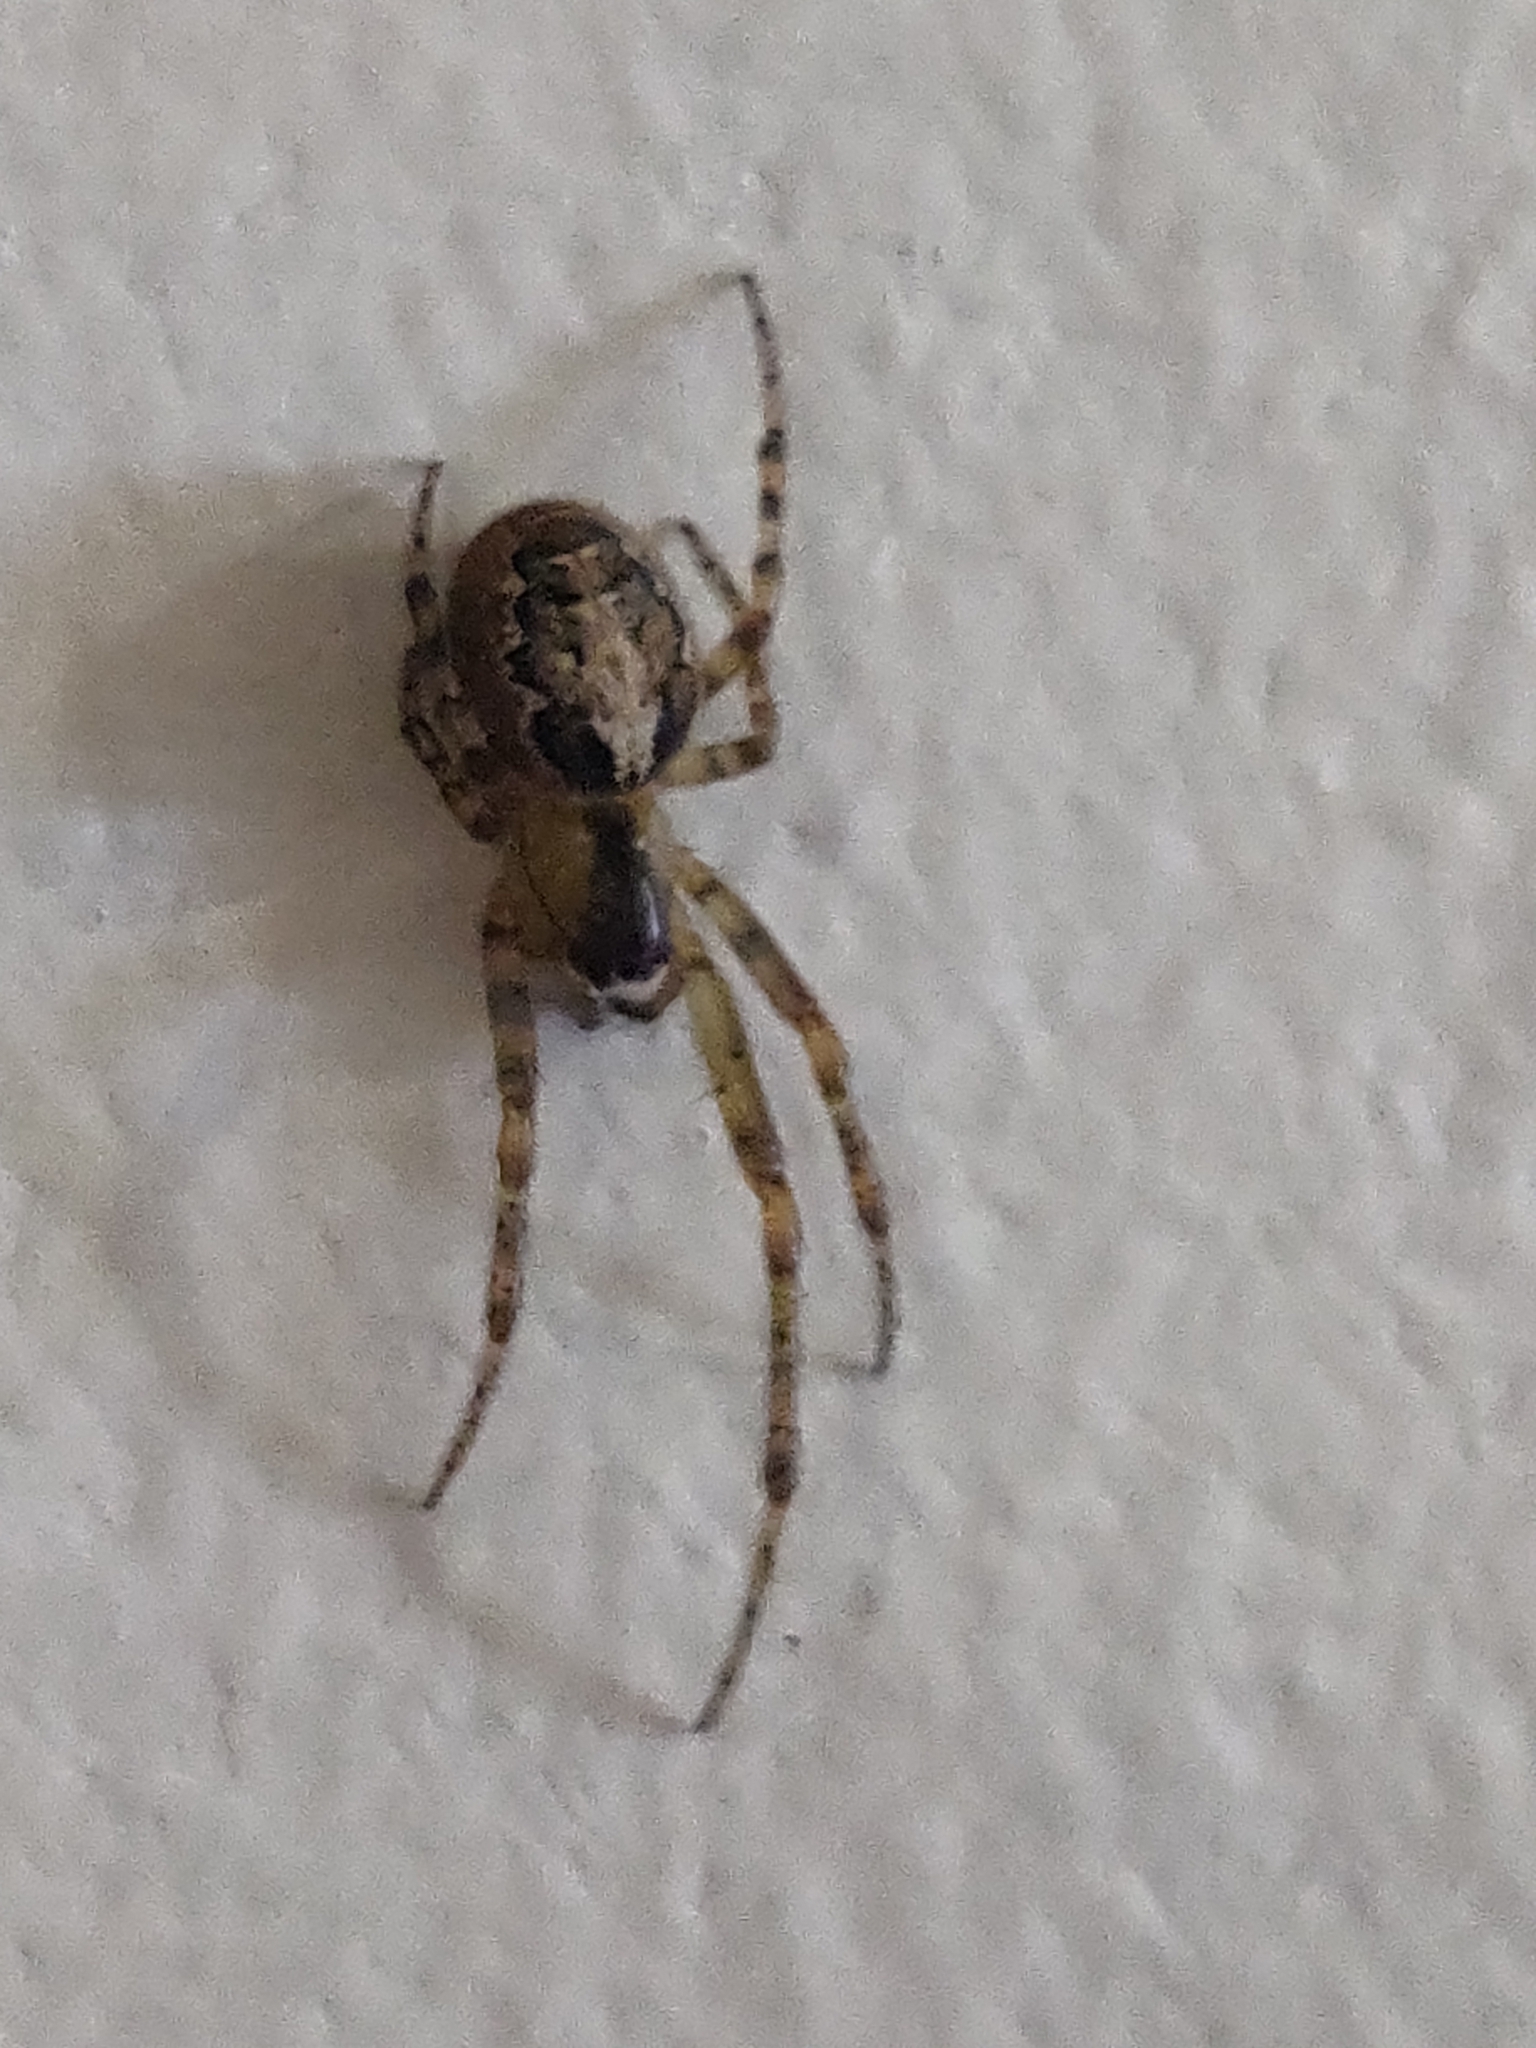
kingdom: Animalia
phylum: Arthropoda
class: Arachnida
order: Araneae
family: Araneidae
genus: Zygiella
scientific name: Zygiella x-notata
